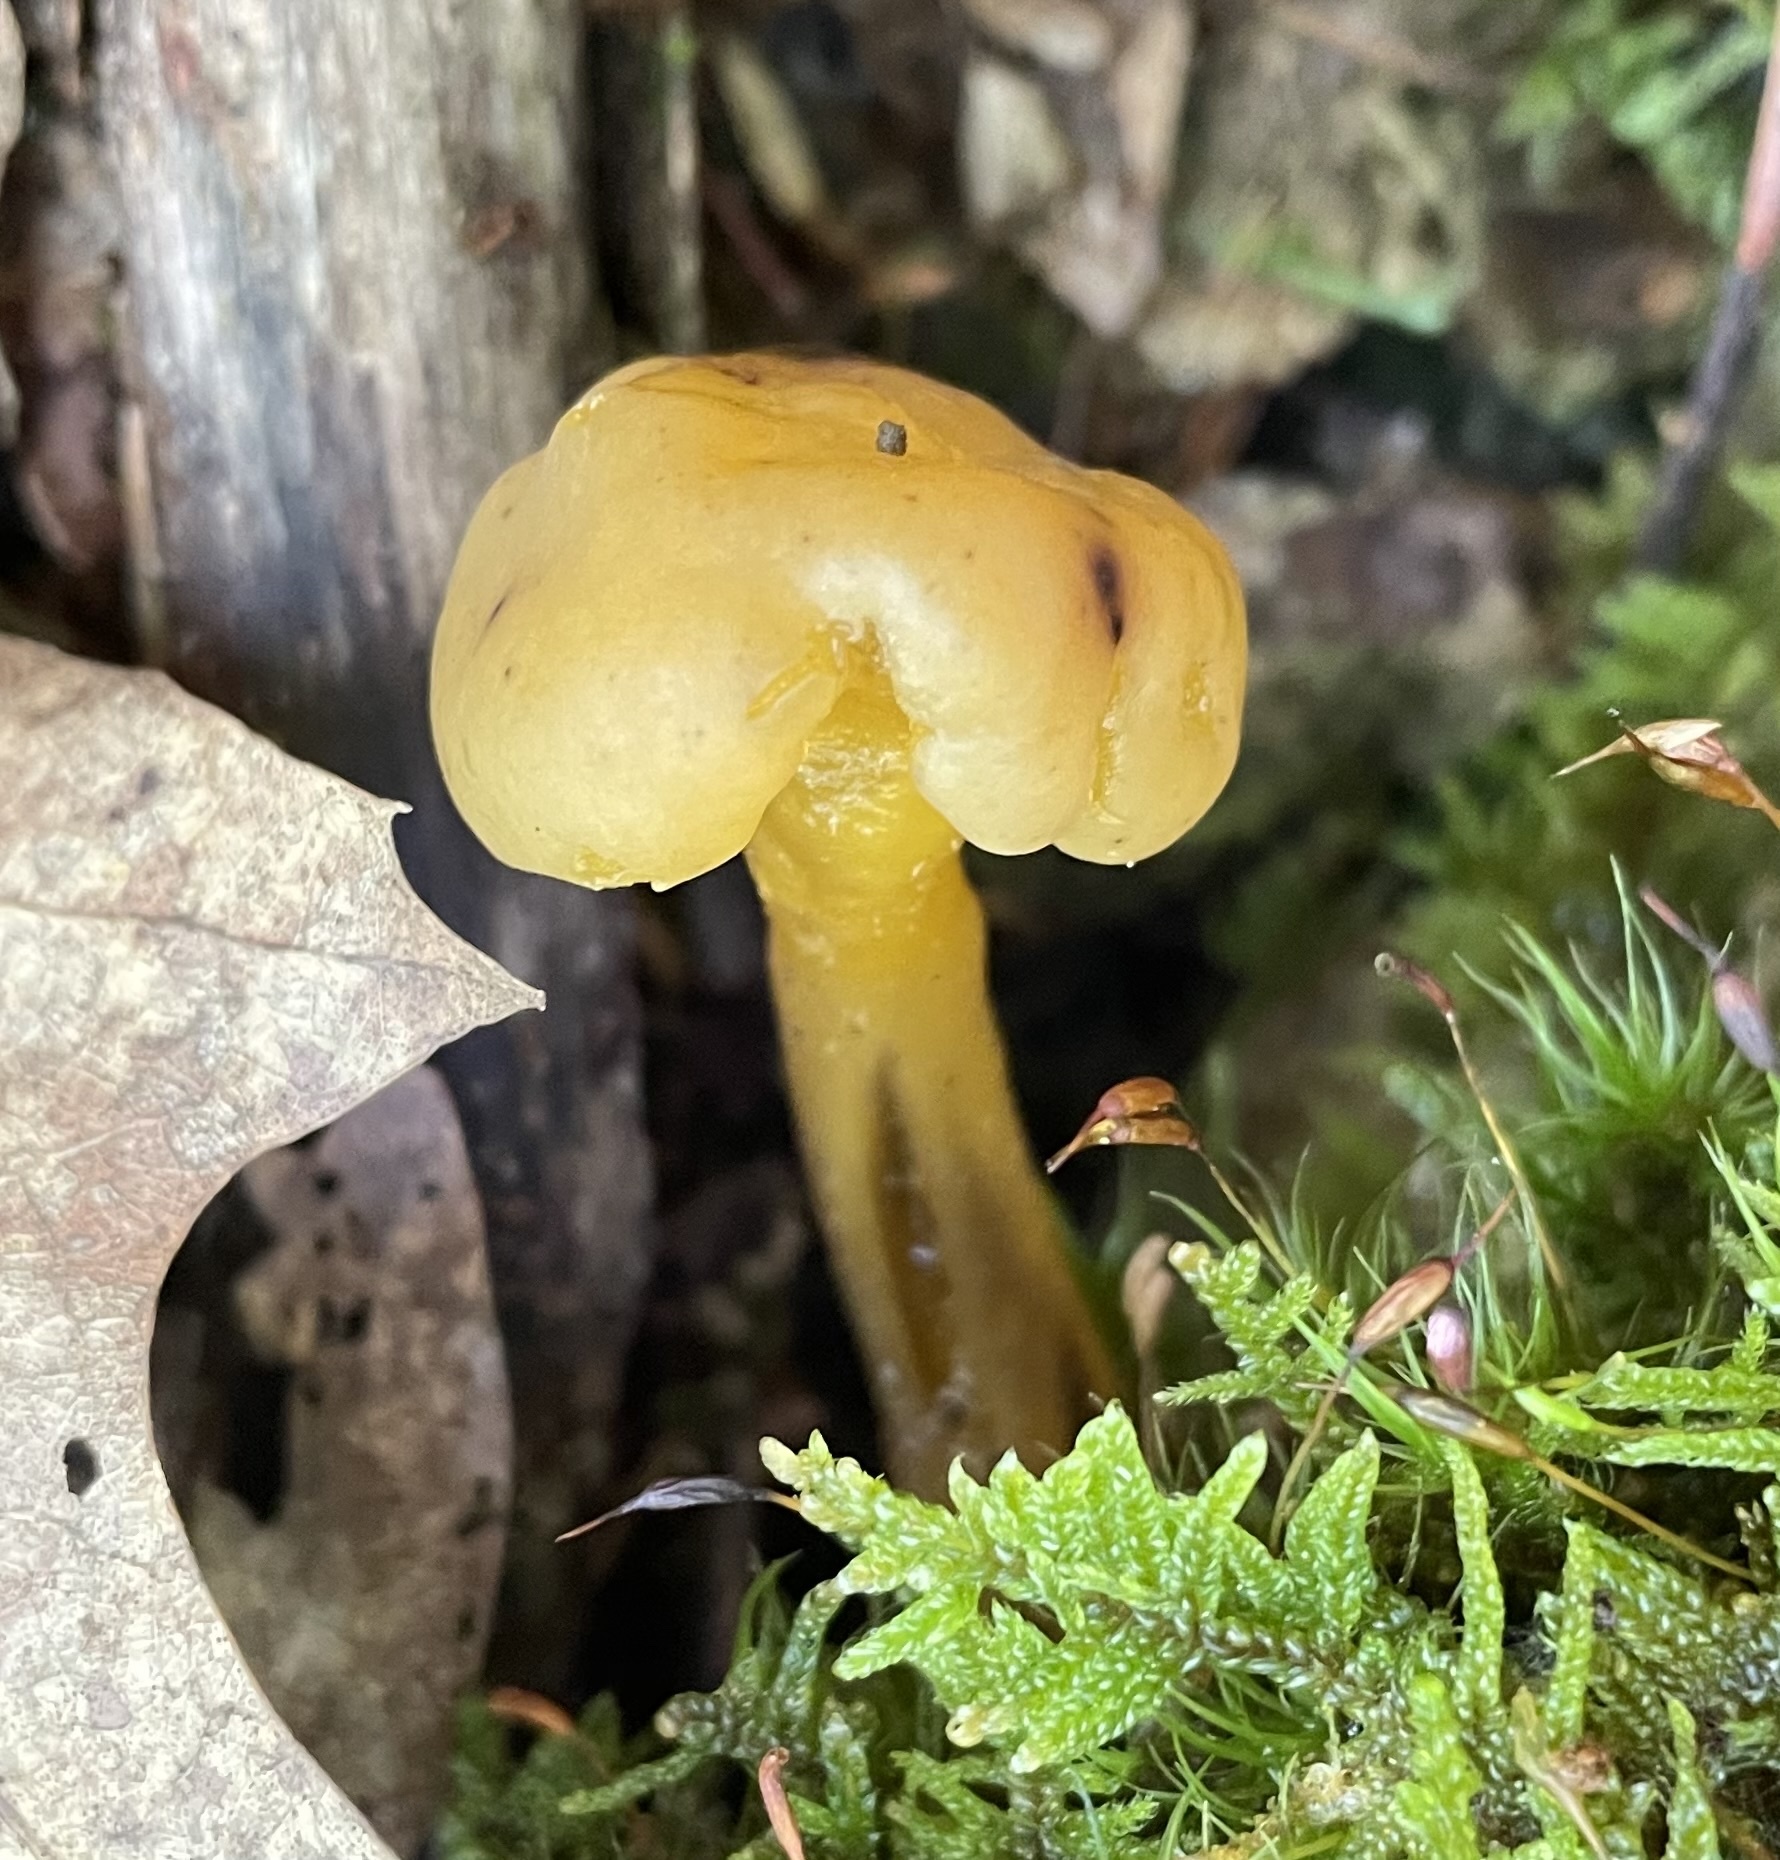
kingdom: Fungi
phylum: Ascomycota
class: Leotiomycetes
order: Leotiales
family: Leotiaceae
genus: Leotia
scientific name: Leotia lubrica
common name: Jellybaby
